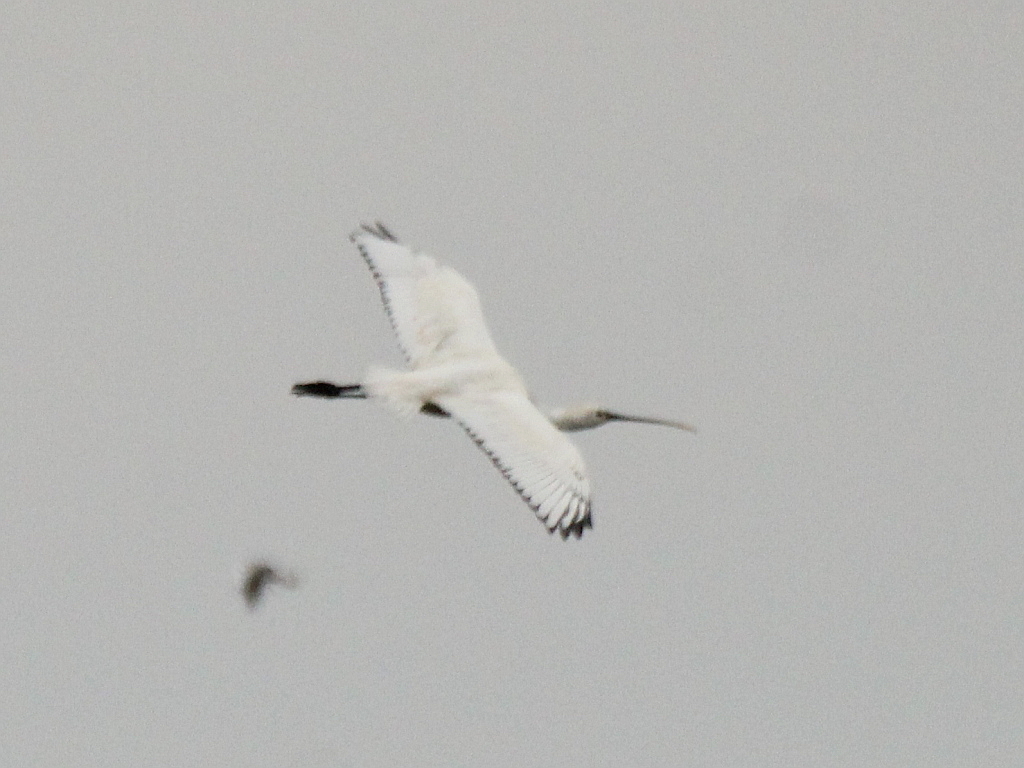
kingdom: Animalia
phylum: Chordata
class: Aves
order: Pelecaniformes
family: Threskiornithidae
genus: Platalea
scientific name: Platalea leucorodia
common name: Eurasian spoonbill
